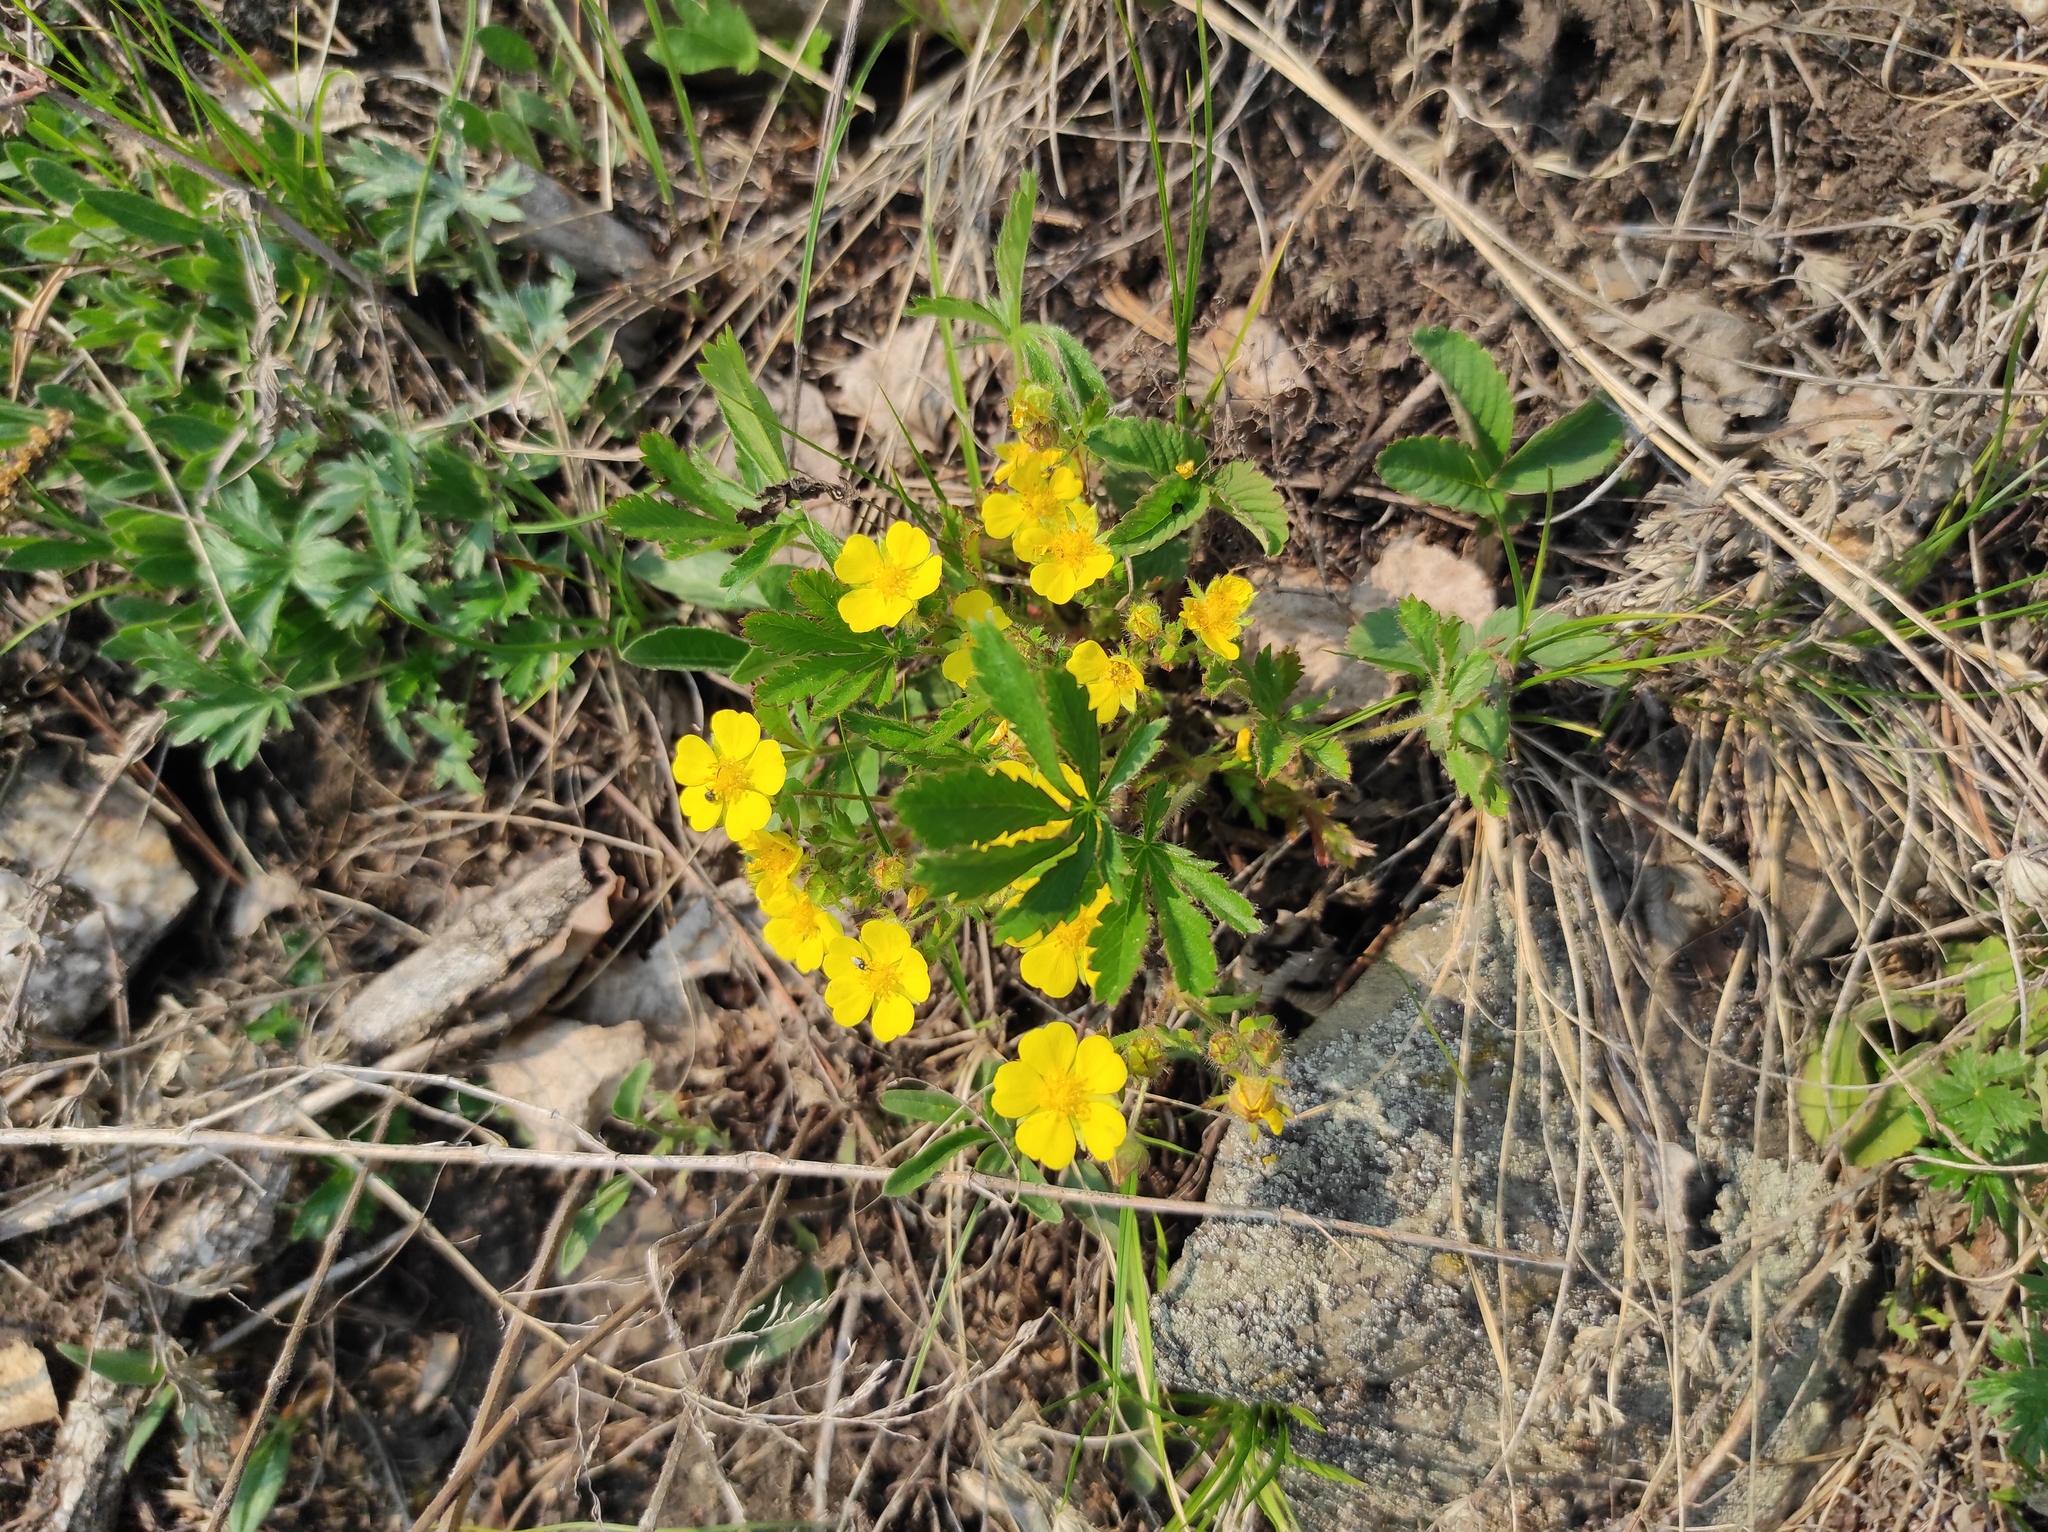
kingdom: Plantae
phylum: Tracheophyta
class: Magnoliopsida
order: Rosales
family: Rosaceae
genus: Potentilla
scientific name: Potentilla humifusa
